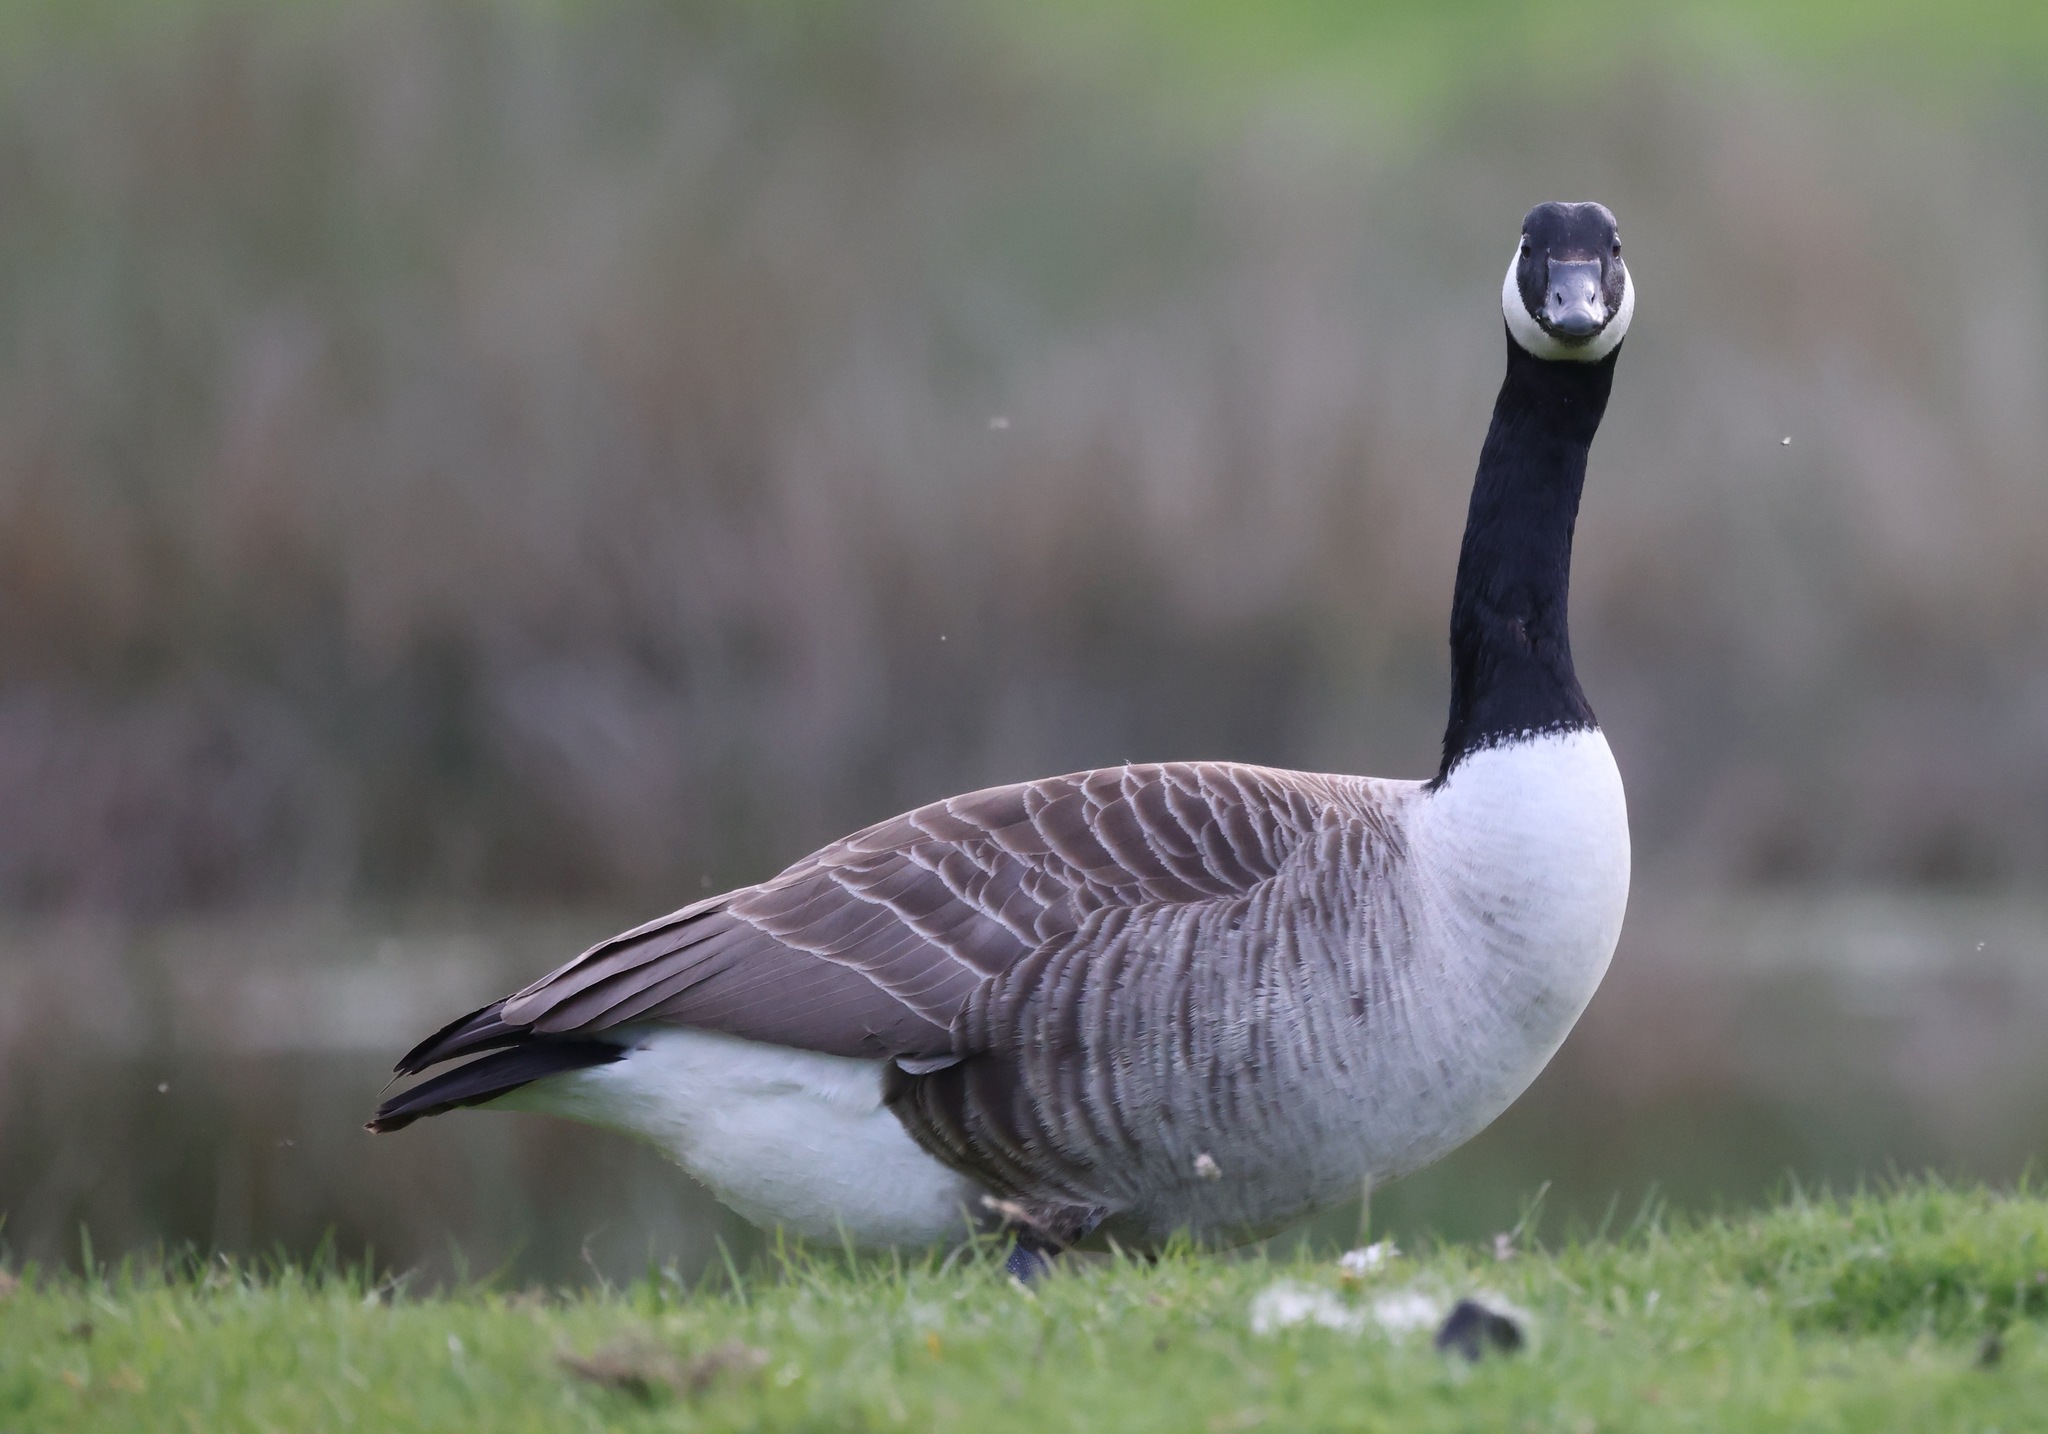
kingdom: Animalia
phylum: Chordata
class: Aves
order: Anseriformes
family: Anatidae
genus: Branta
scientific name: Branta canadensis
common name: Canada goose
